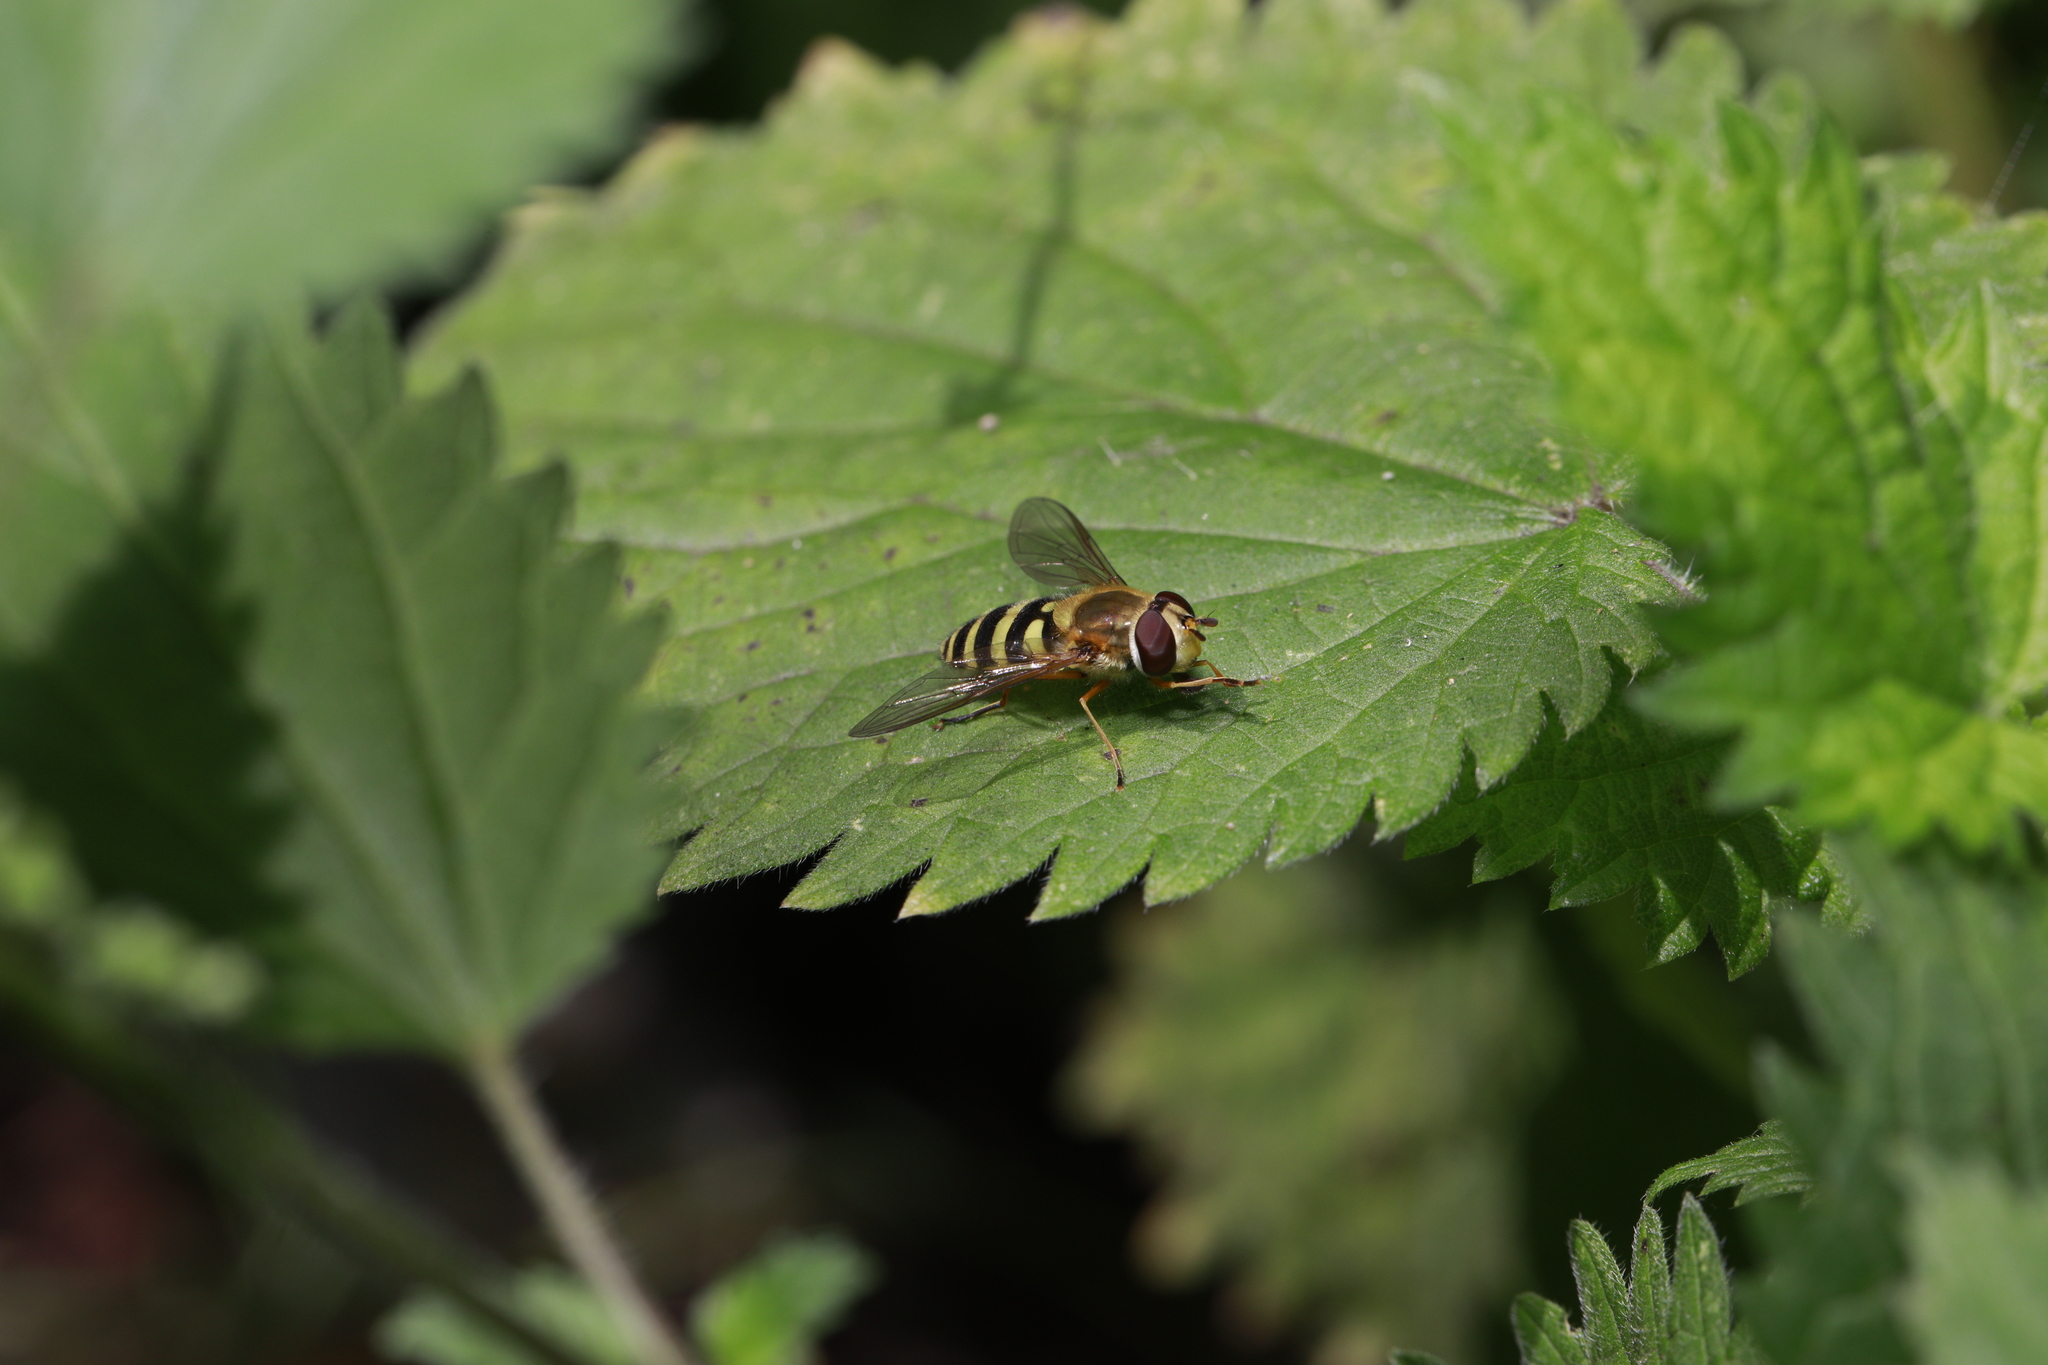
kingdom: Animalia
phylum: Arthropoda
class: Insecta
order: Diptera
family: Syrphidae
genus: Syrphus
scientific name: Syrphus ribesii
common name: Common flower fly
